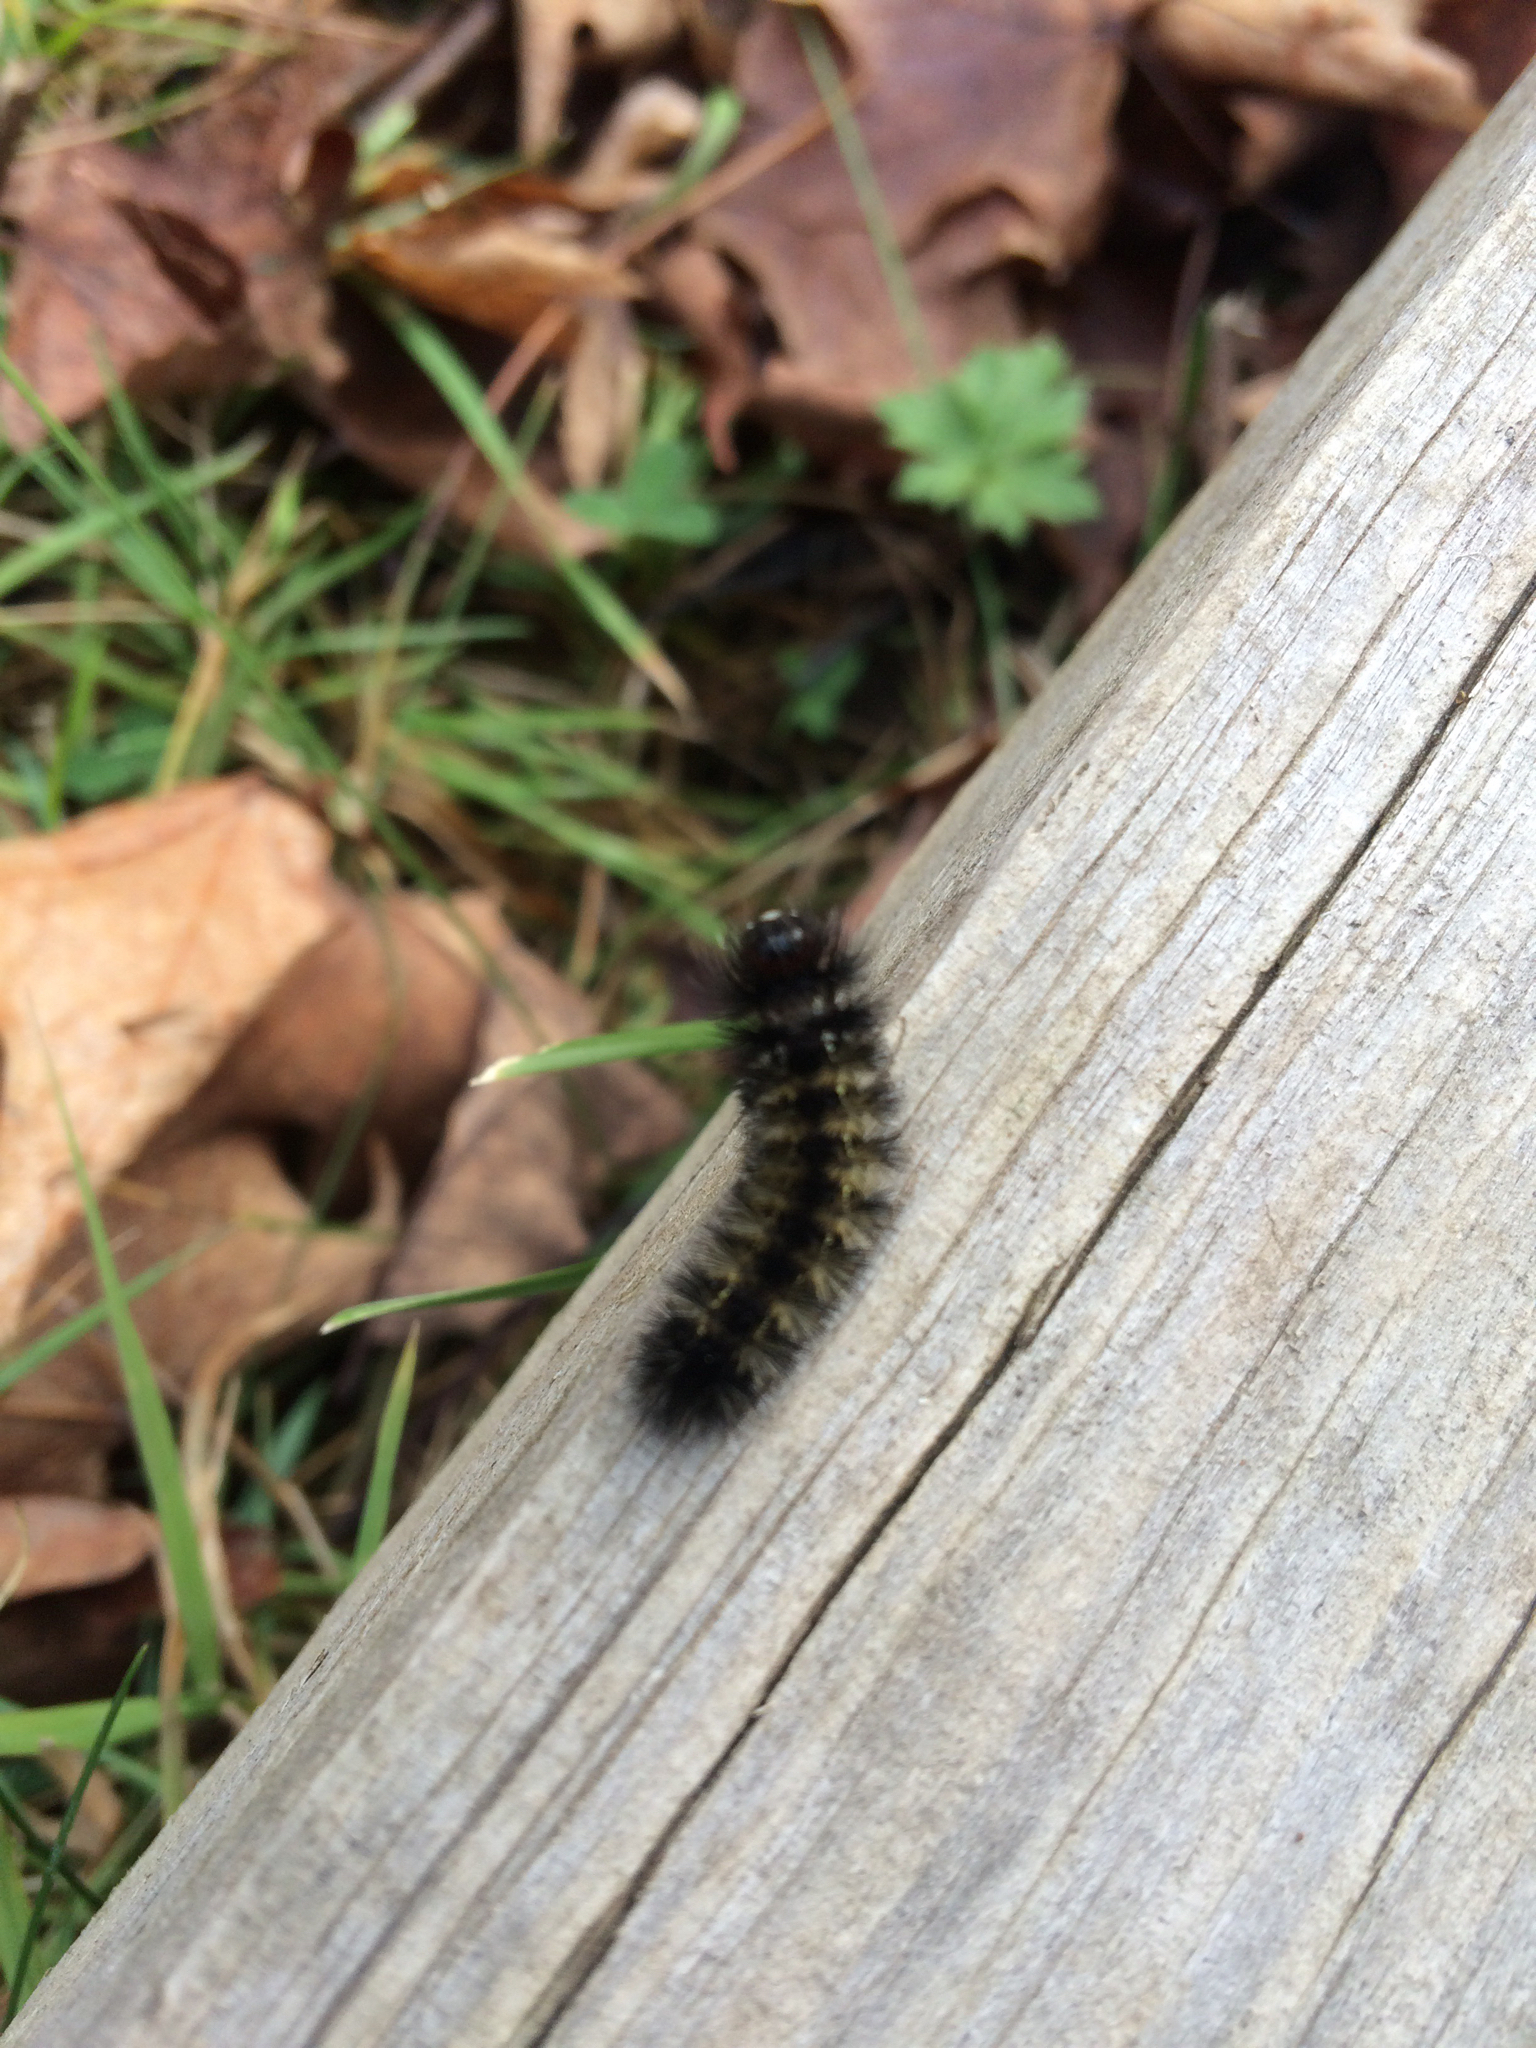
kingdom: Animalia
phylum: Arthropoda
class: Insecta
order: Lepidoptera
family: Erebidae
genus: Ctenucha
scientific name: Ctenucha virginica
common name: Virginia ctenucha moth
